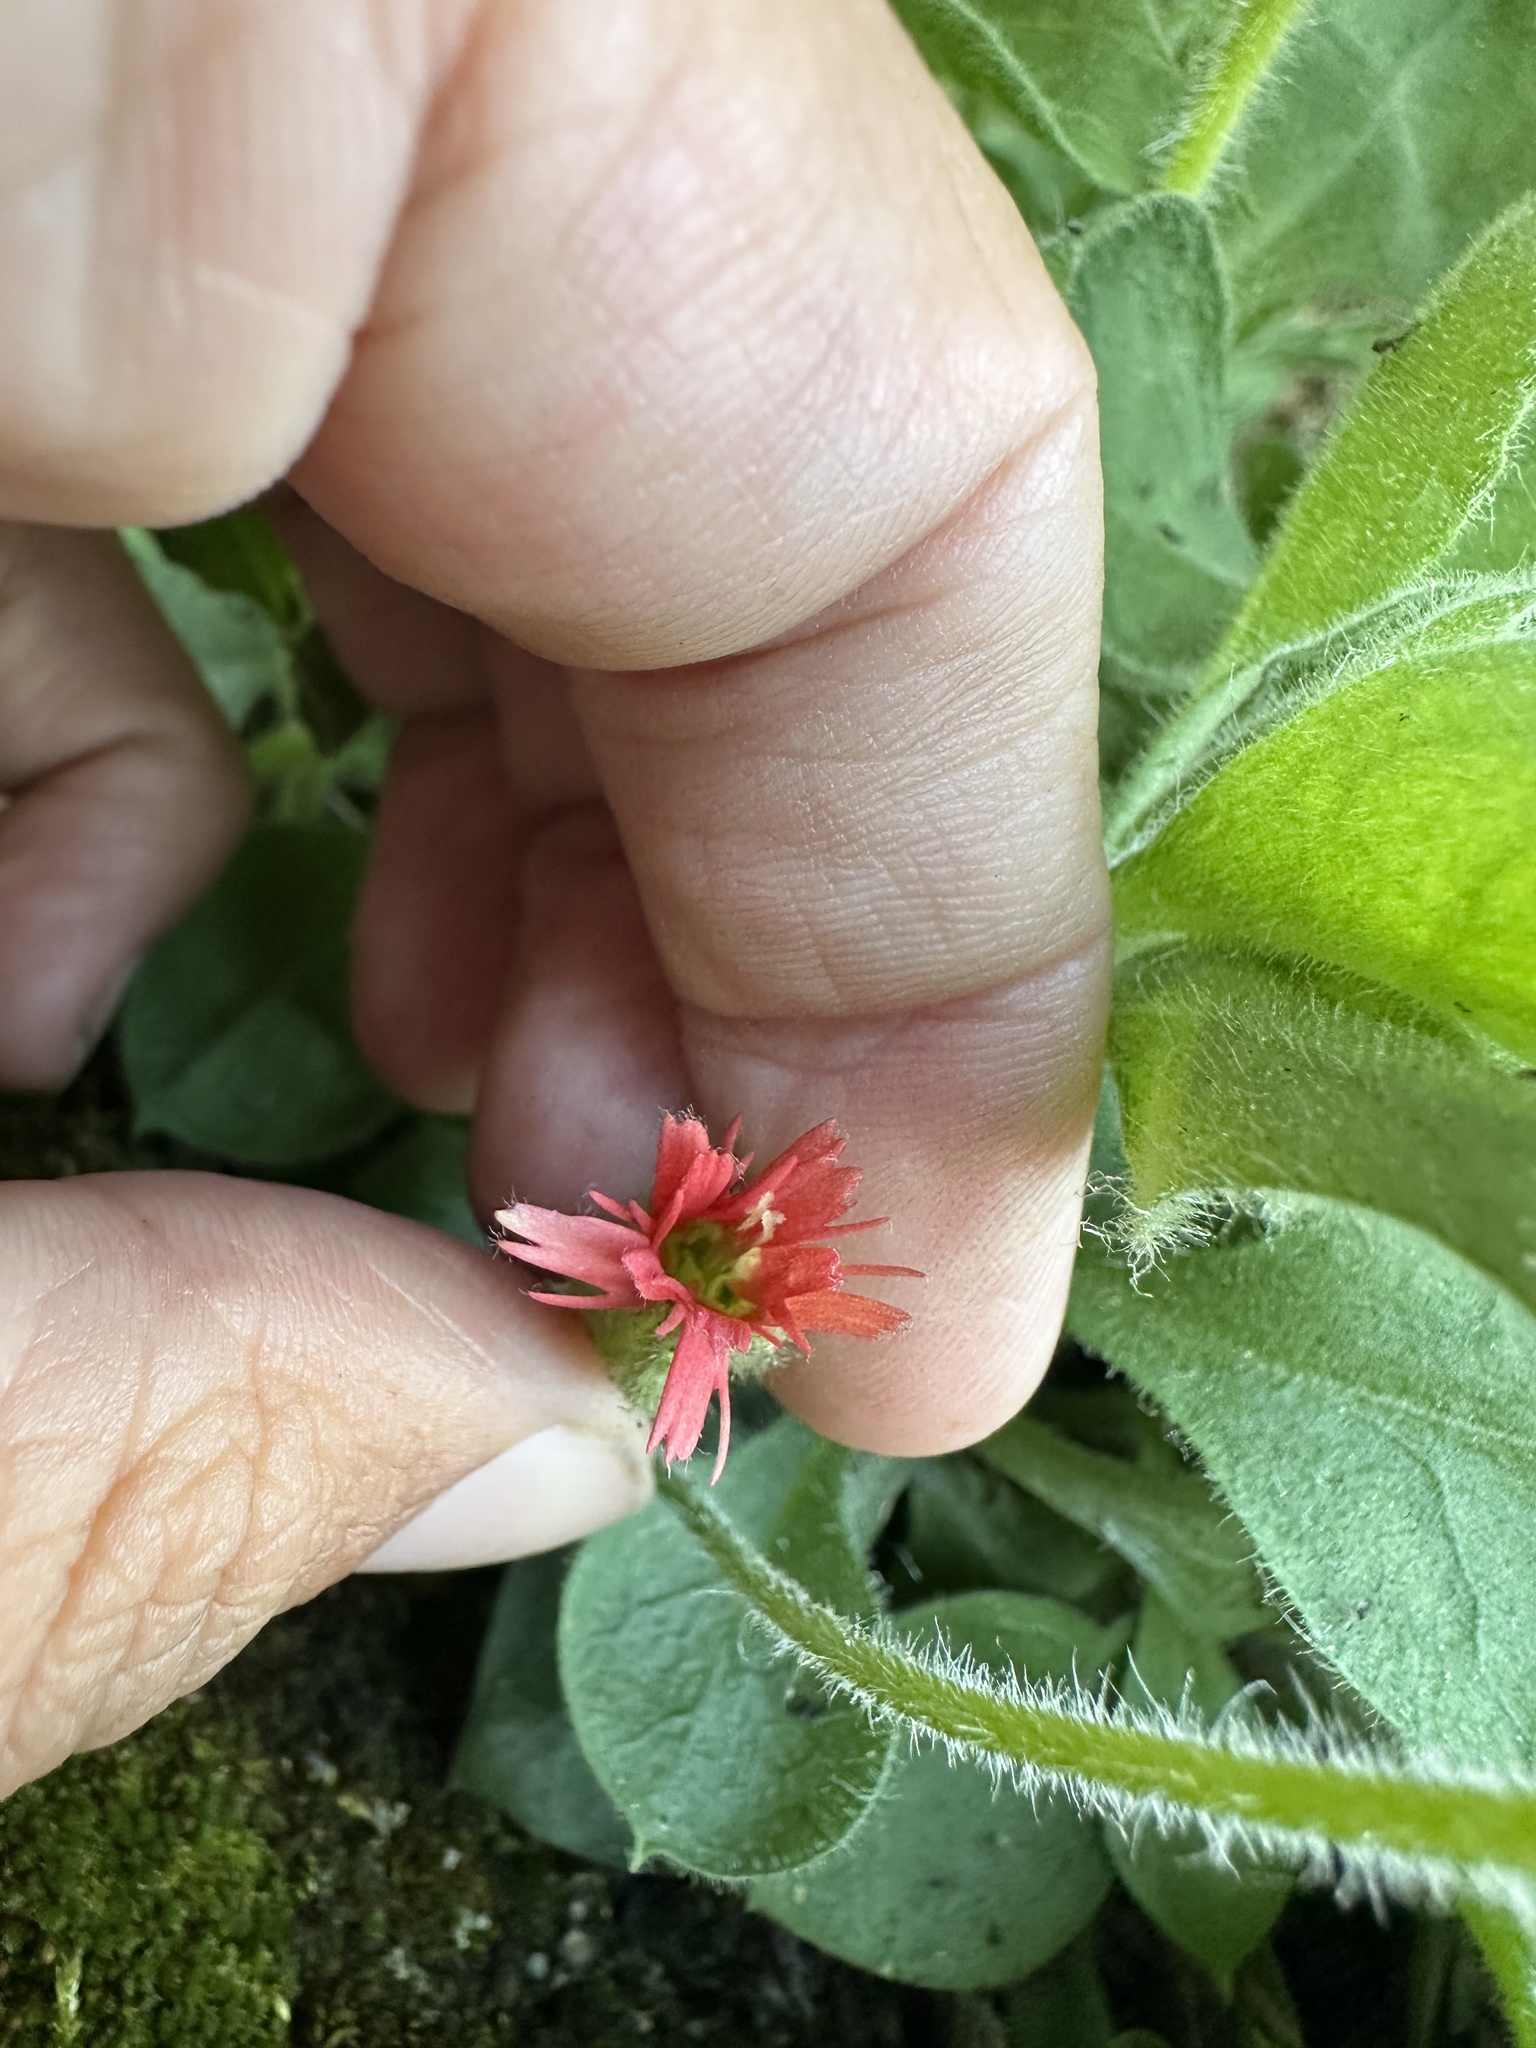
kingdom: Plantae
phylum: Tracheophyta
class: Magnoliopsida
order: Caryophyllales
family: Caryophyllaceae
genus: Silene
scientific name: Silene laciniata
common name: Indian-pink
